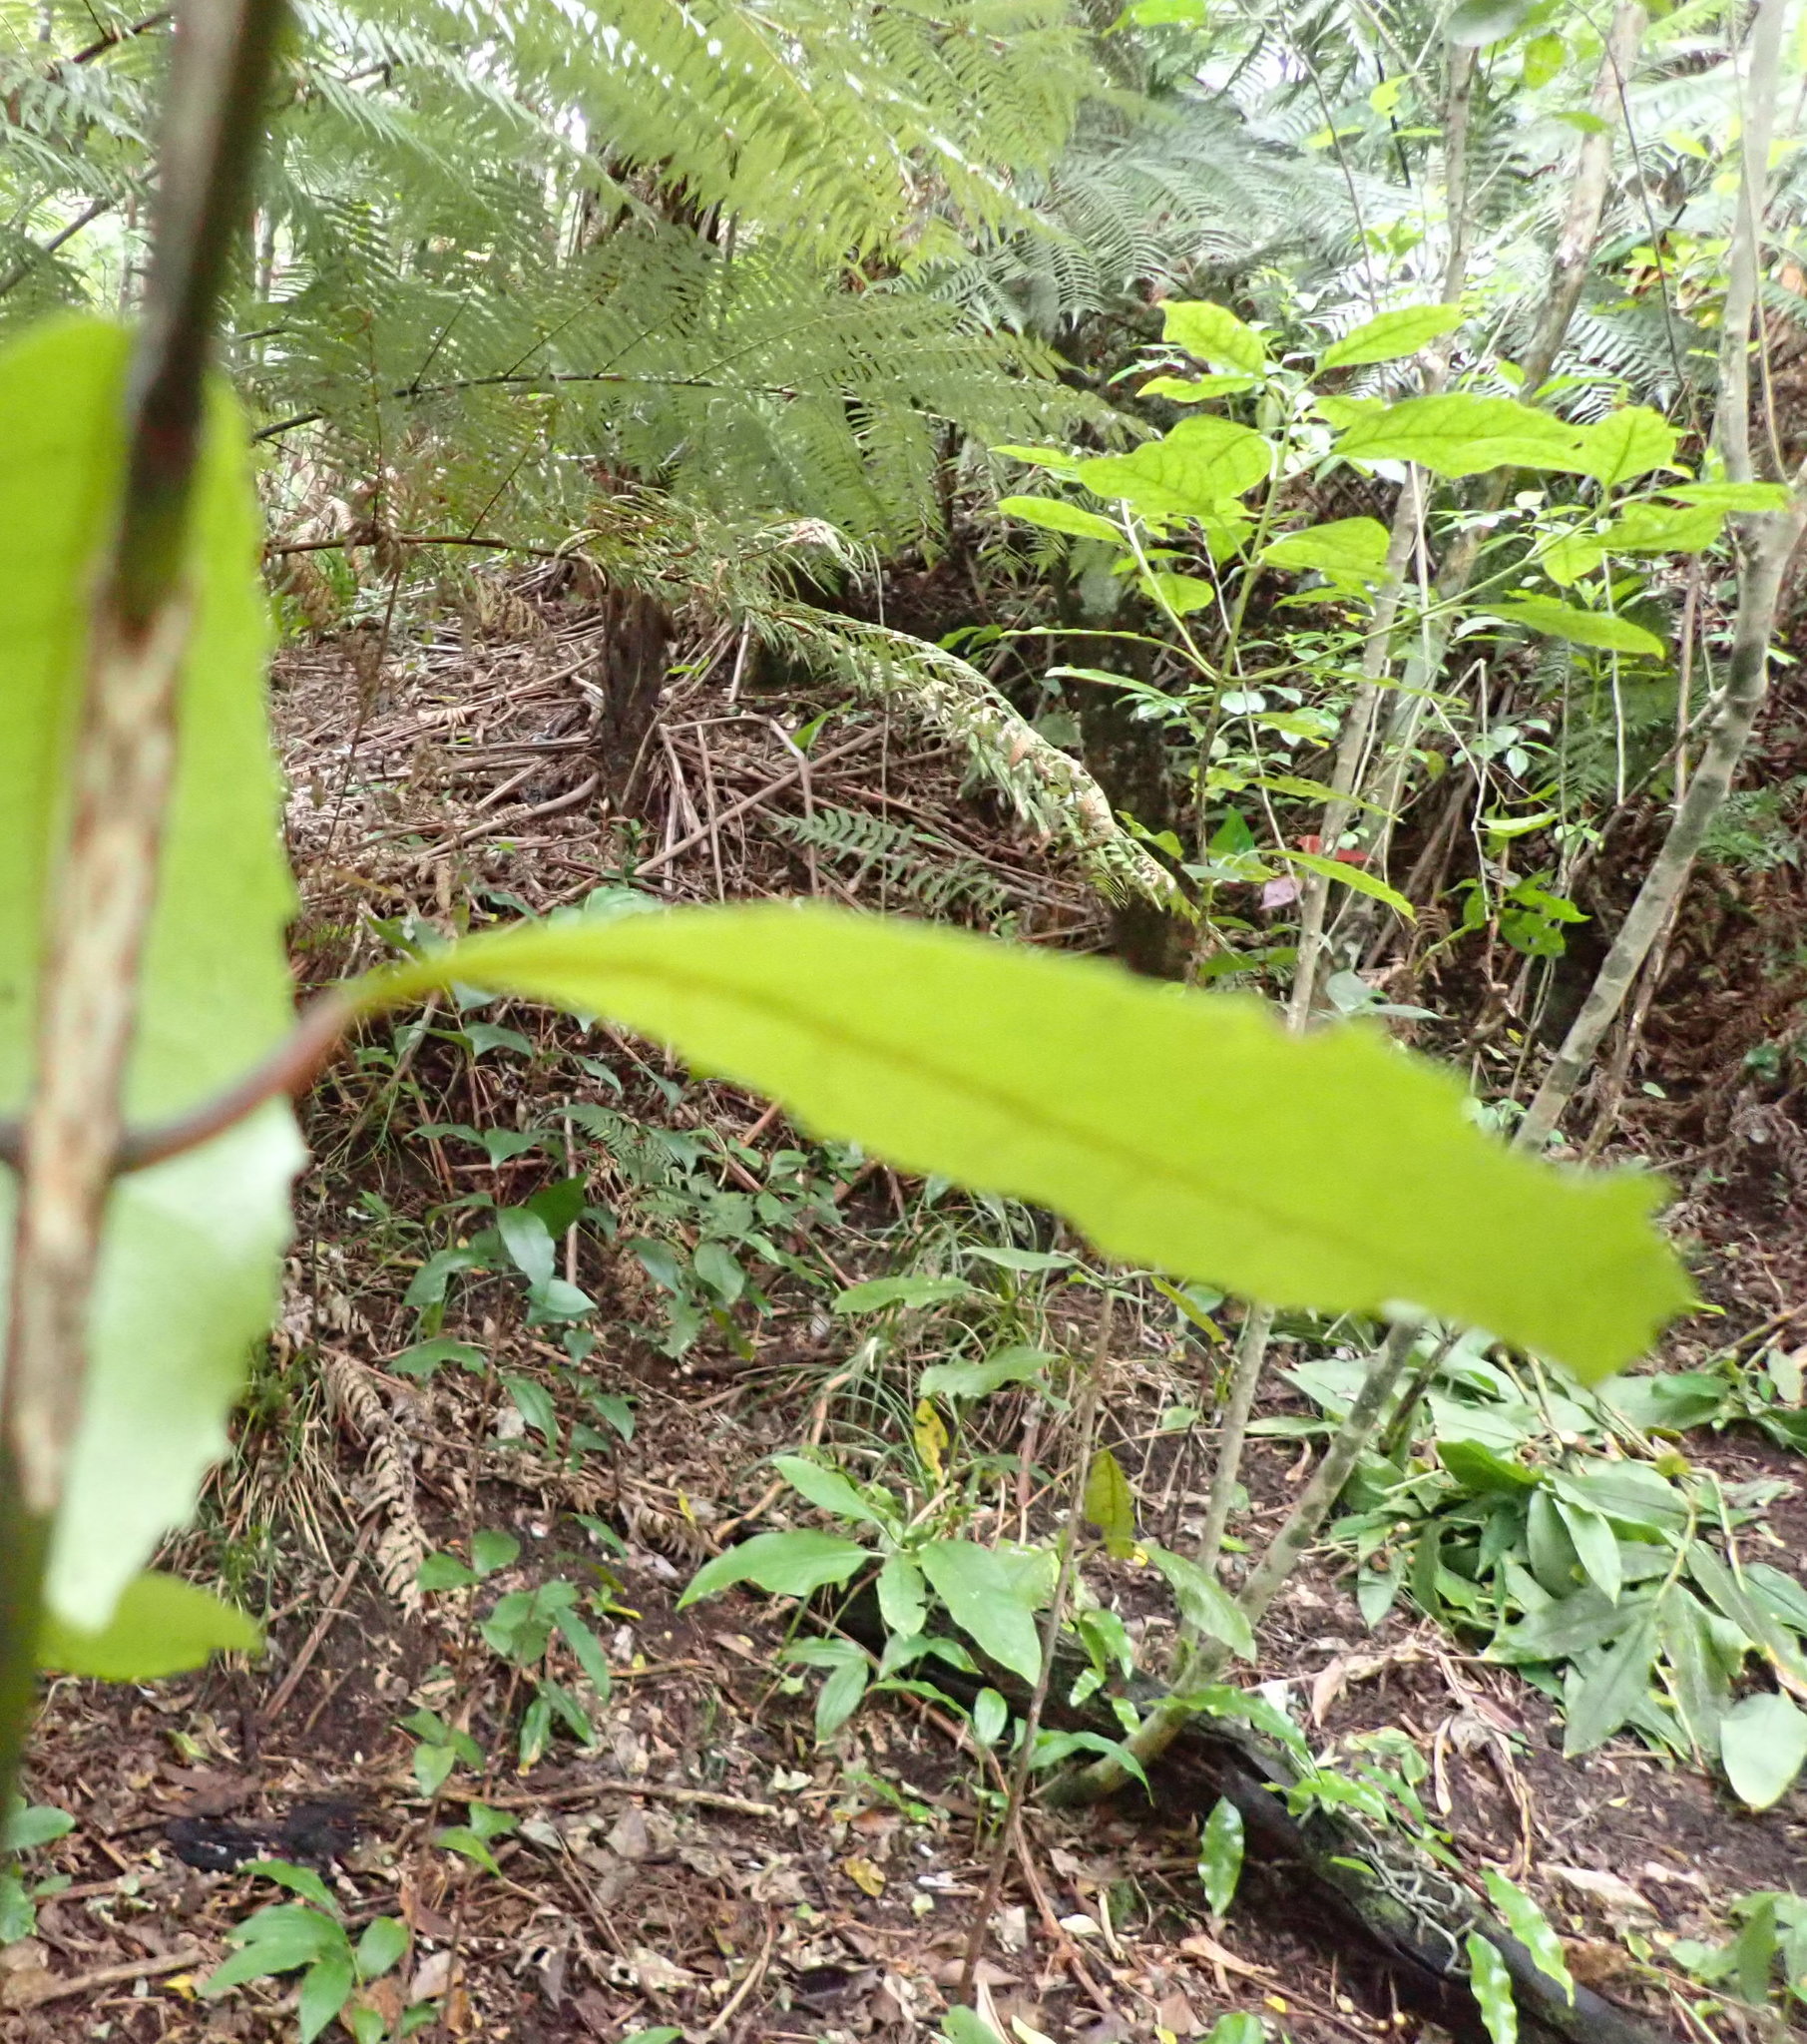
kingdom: Plantae
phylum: Tracheophyta
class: Magnoliopsida
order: Gentianales
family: Rubiaceae
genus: Coprosma
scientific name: Coprosma autumnalis
